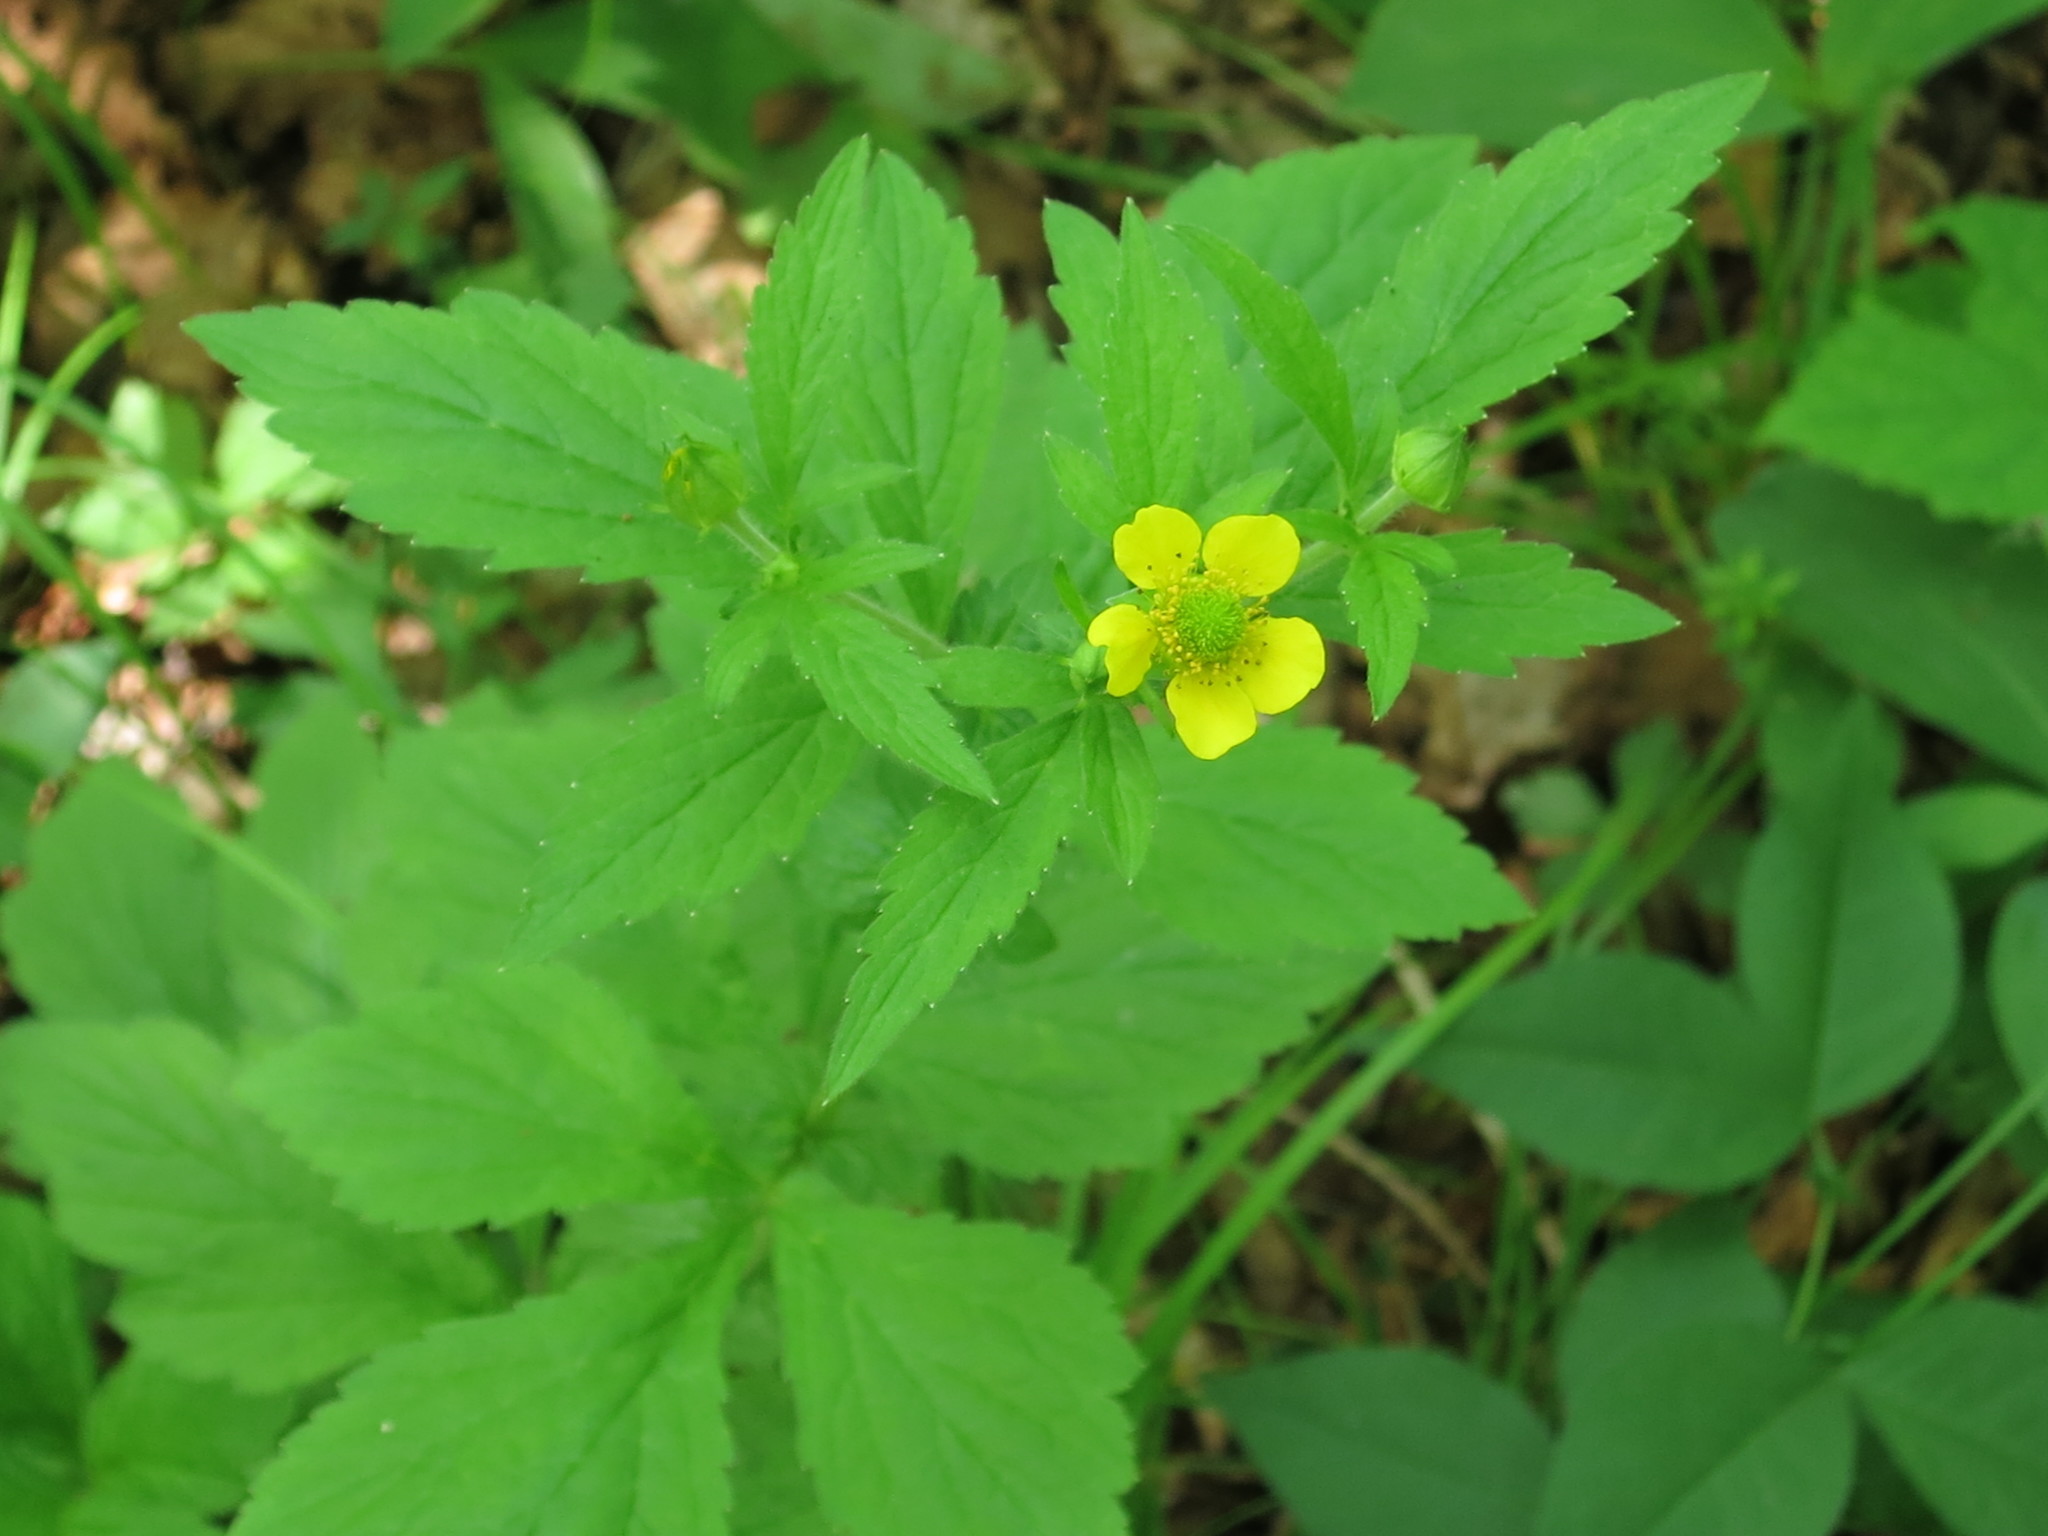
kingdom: Plantae
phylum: Tracheophyta
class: Magnoliopsida
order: Rosales
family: Rosaceae
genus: Geum
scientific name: Geum aleppicum
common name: Yellow avens
